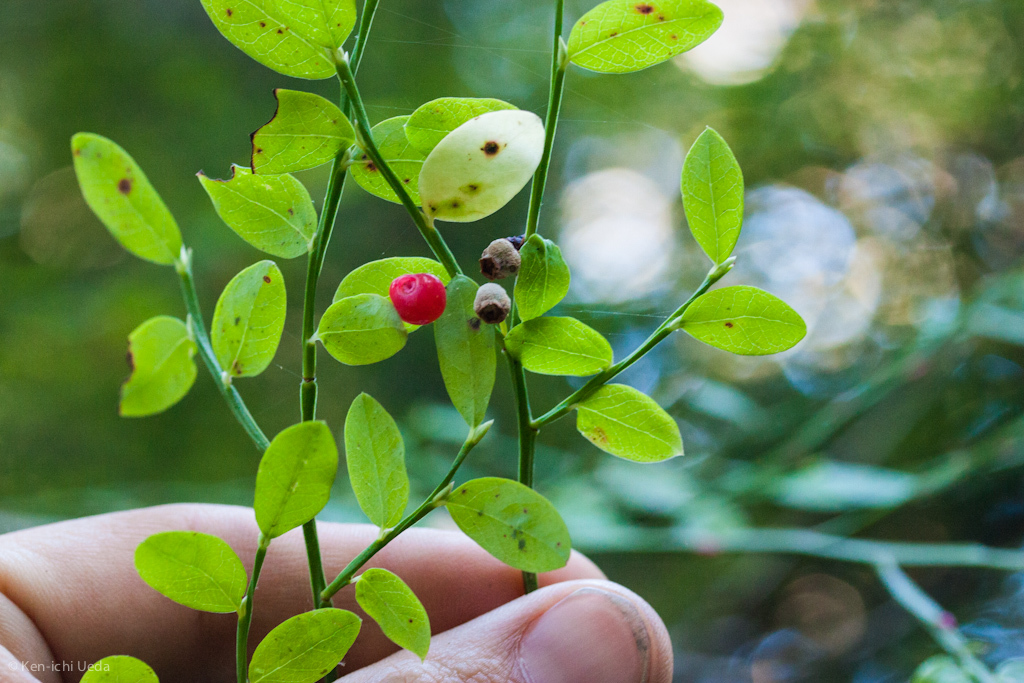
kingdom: Plantae
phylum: Tracheophyta
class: Magnoliopsida
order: Ericales
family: Ericaceae
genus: Vaccinium
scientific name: Vaccinium parvifolium
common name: Red-huckleberry
